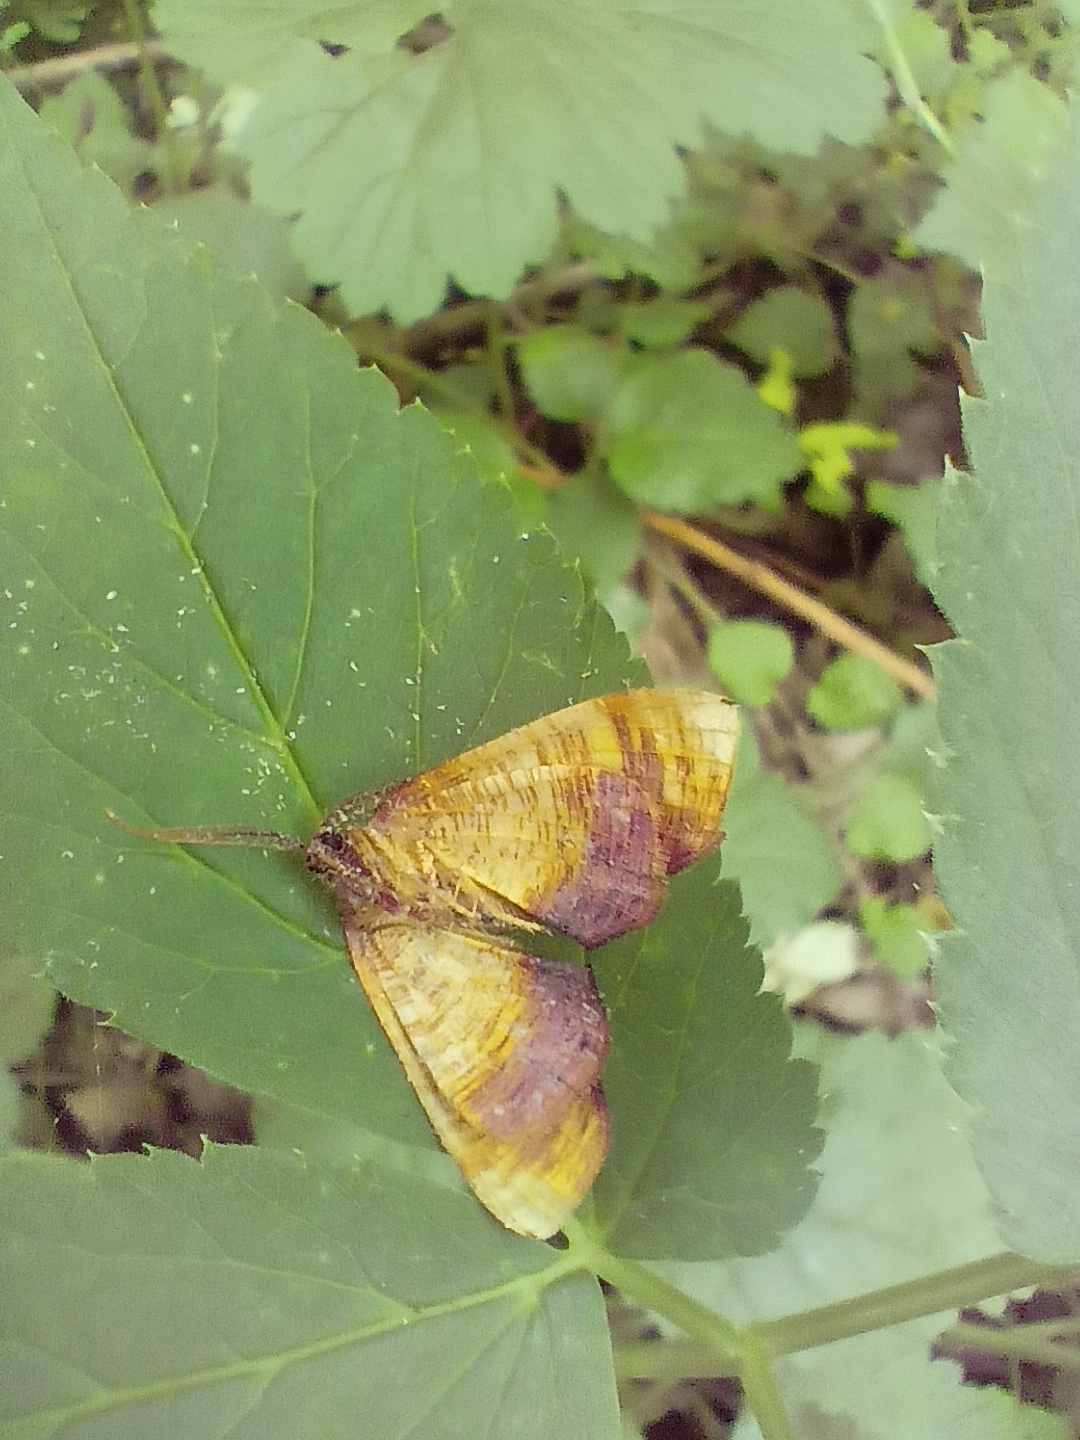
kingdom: Animalia
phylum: Arthropoda
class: Insecta
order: Lepidoptera
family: Geometridae
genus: Plagodis
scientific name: Plagodis dolabraria
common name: Scorched wing
